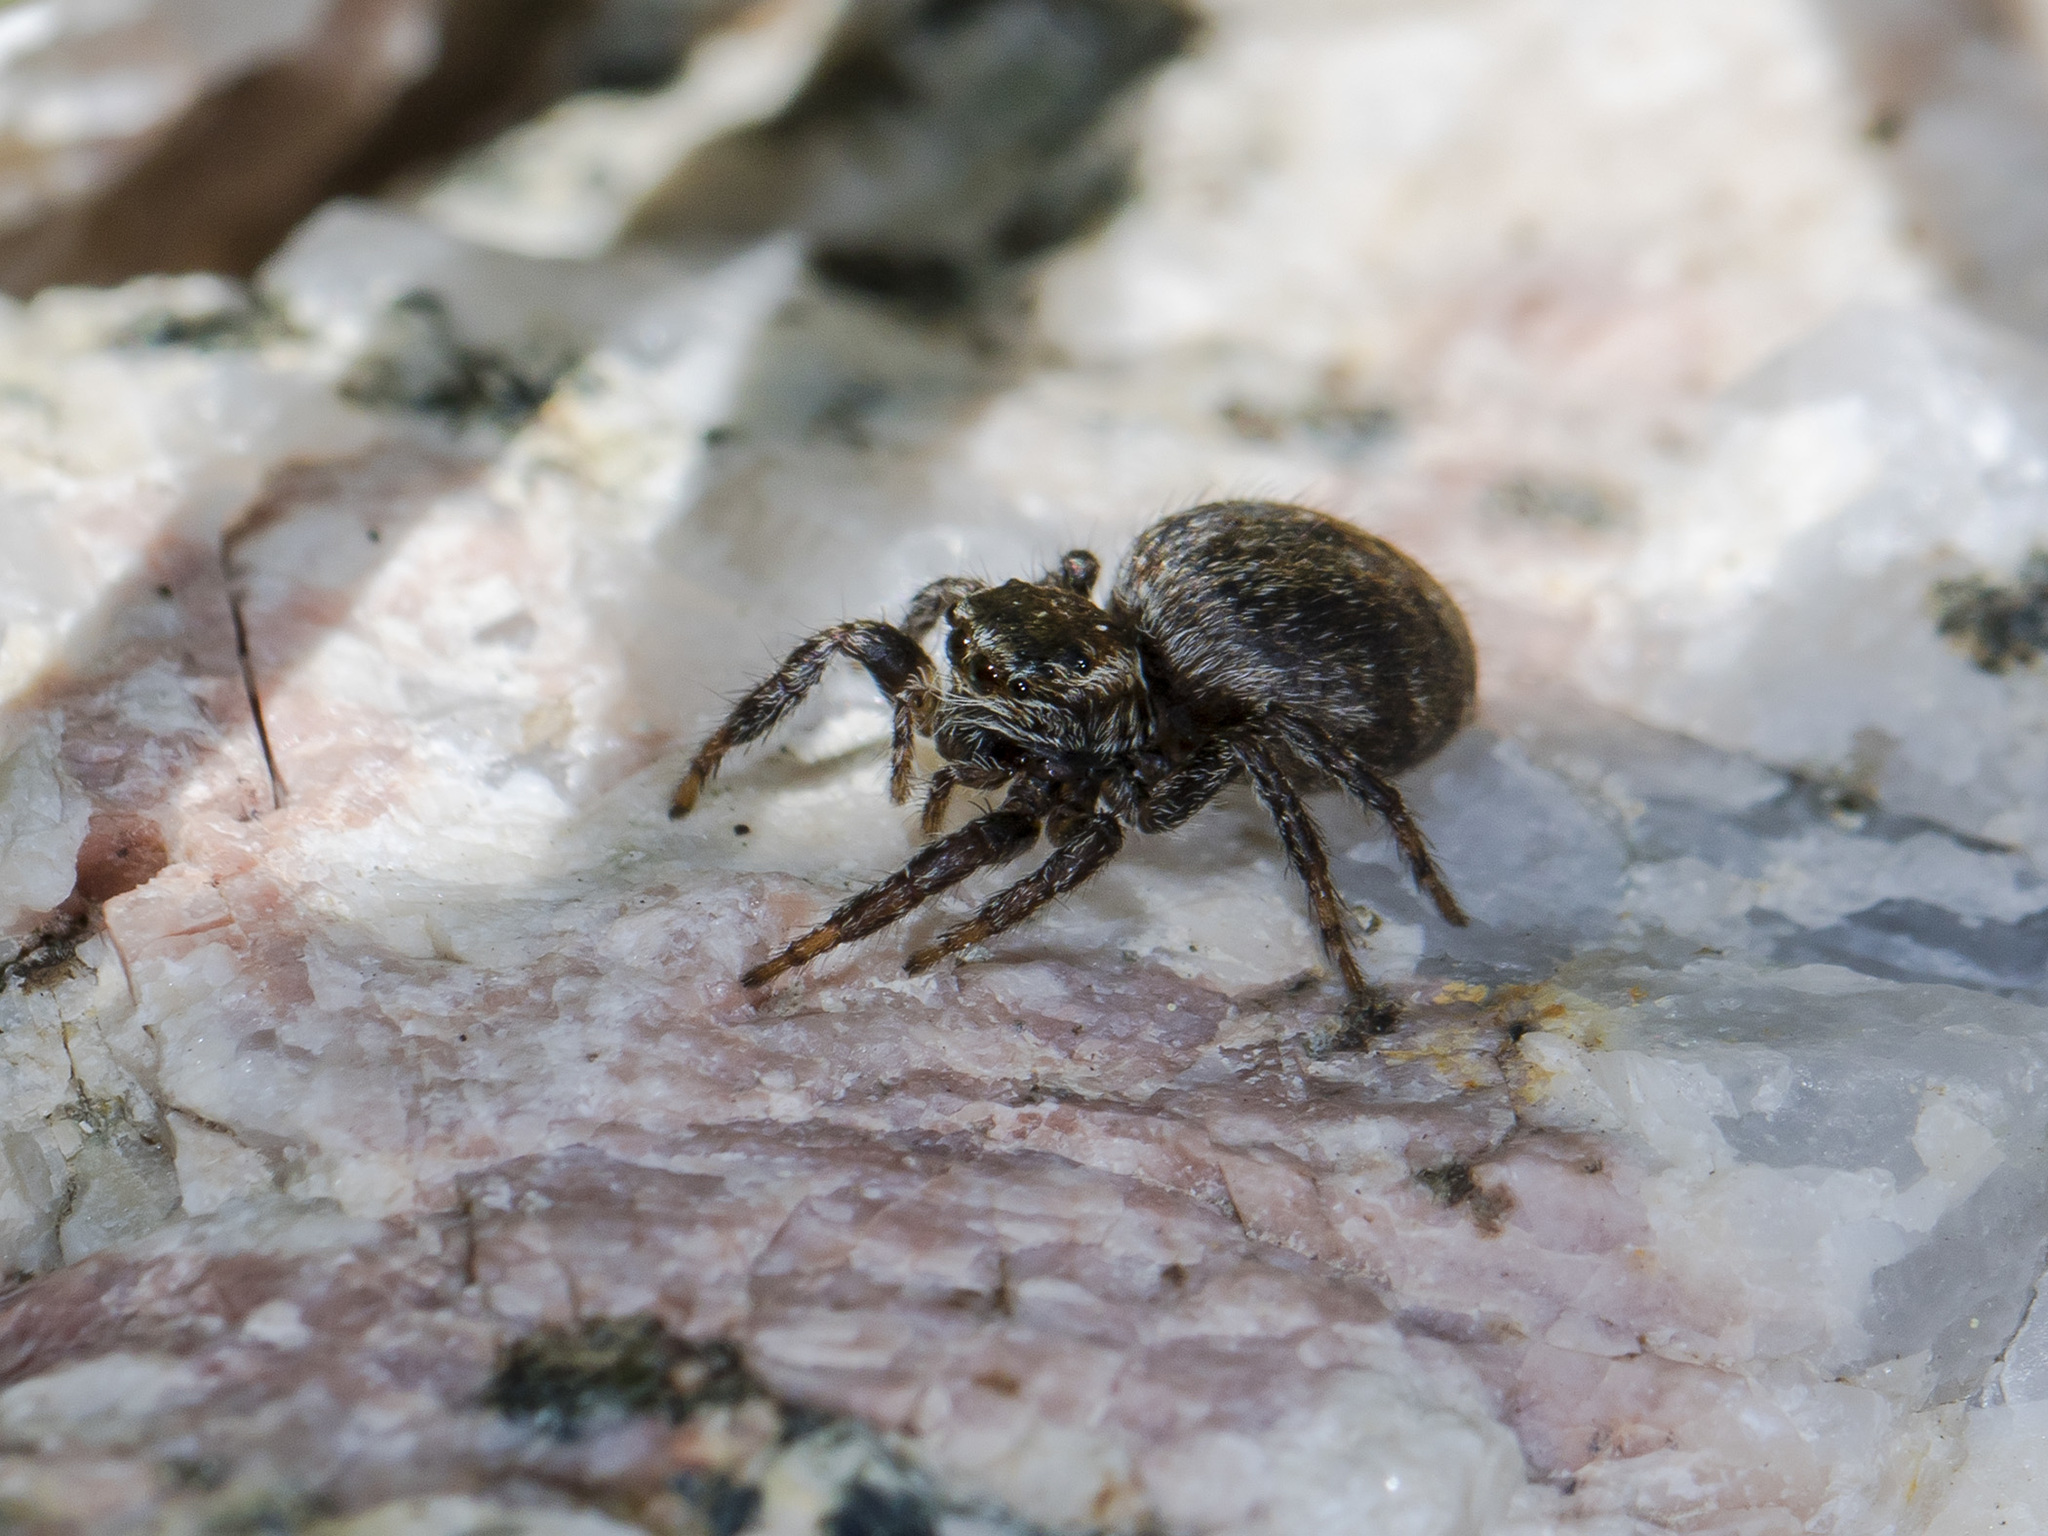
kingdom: Animalia
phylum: Arthropoda
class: Arachnida
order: Araneae
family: Salticidae
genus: Evarcha
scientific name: Evarcha michailovi
